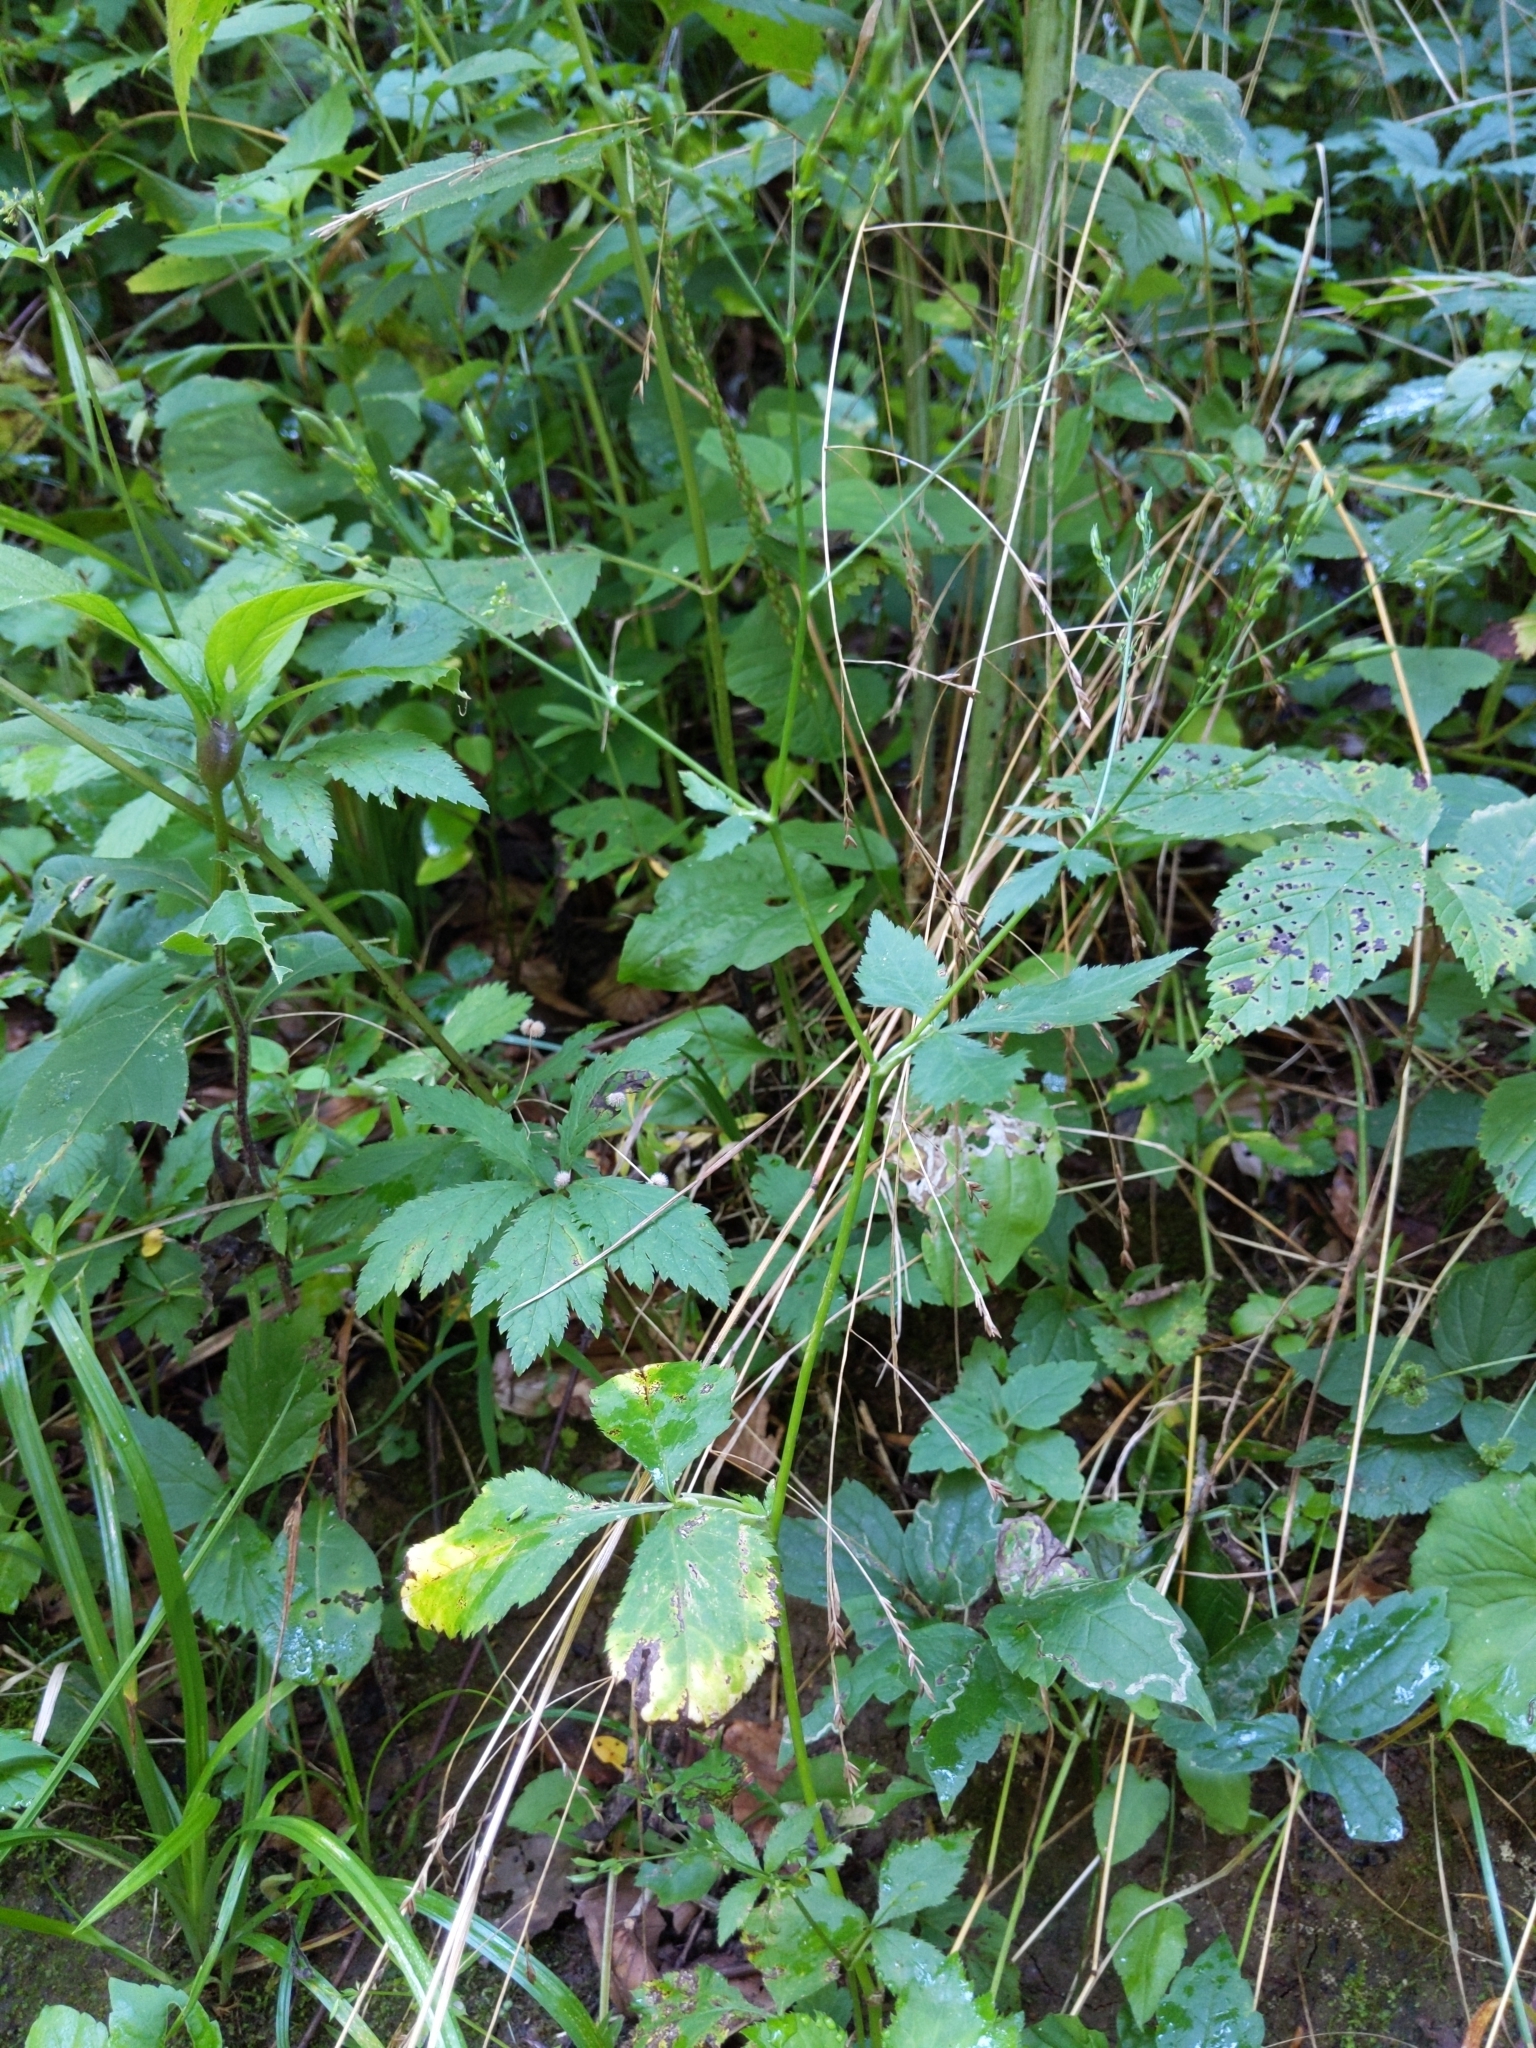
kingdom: Plantae
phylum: Tracheophyta
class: Magnoliopsida
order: Apiales
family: Apiaceae
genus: Cryptotaenia
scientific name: Cryptotaenia canadensis
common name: Honewort
